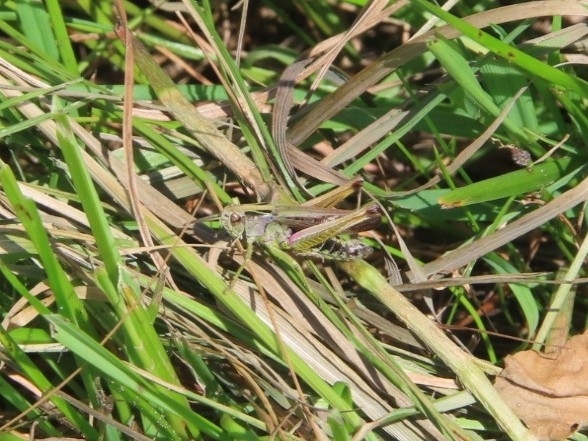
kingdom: Animalia
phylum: Arthropoda
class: Insecta
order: Orthoptera
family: Acrididae
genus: Omocestus
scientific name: Omocestus viridulus
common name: Common green grasshopper
